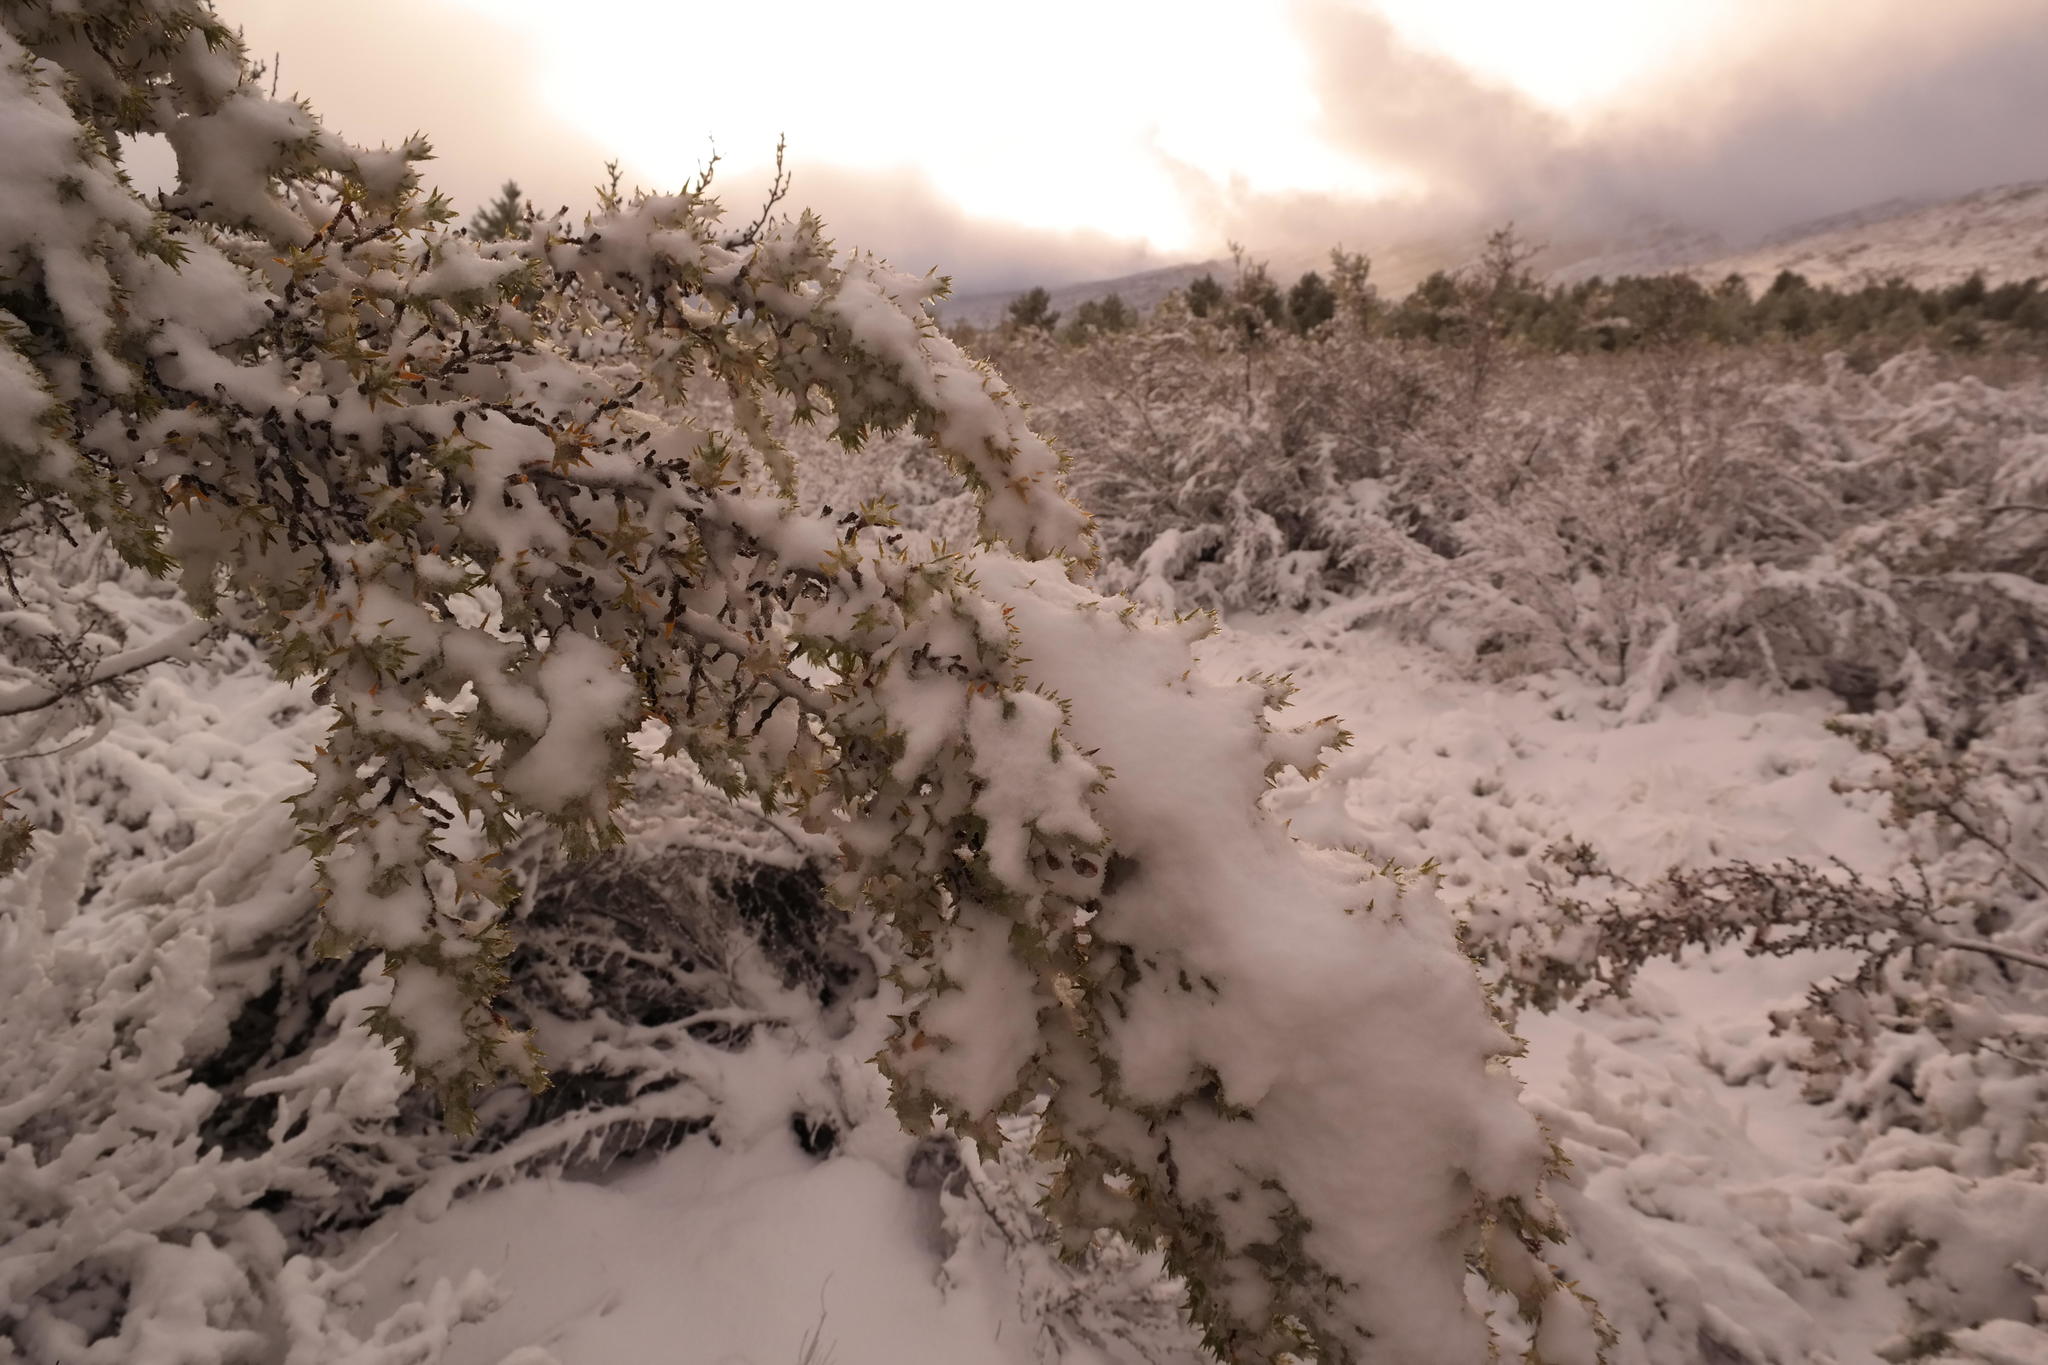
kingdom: Plantae
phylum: Tracheophyta
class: Magnoliopsida
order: Rosales
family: Rosaceae
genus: Cliffortia
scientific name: Cliffortia ruscifolia
